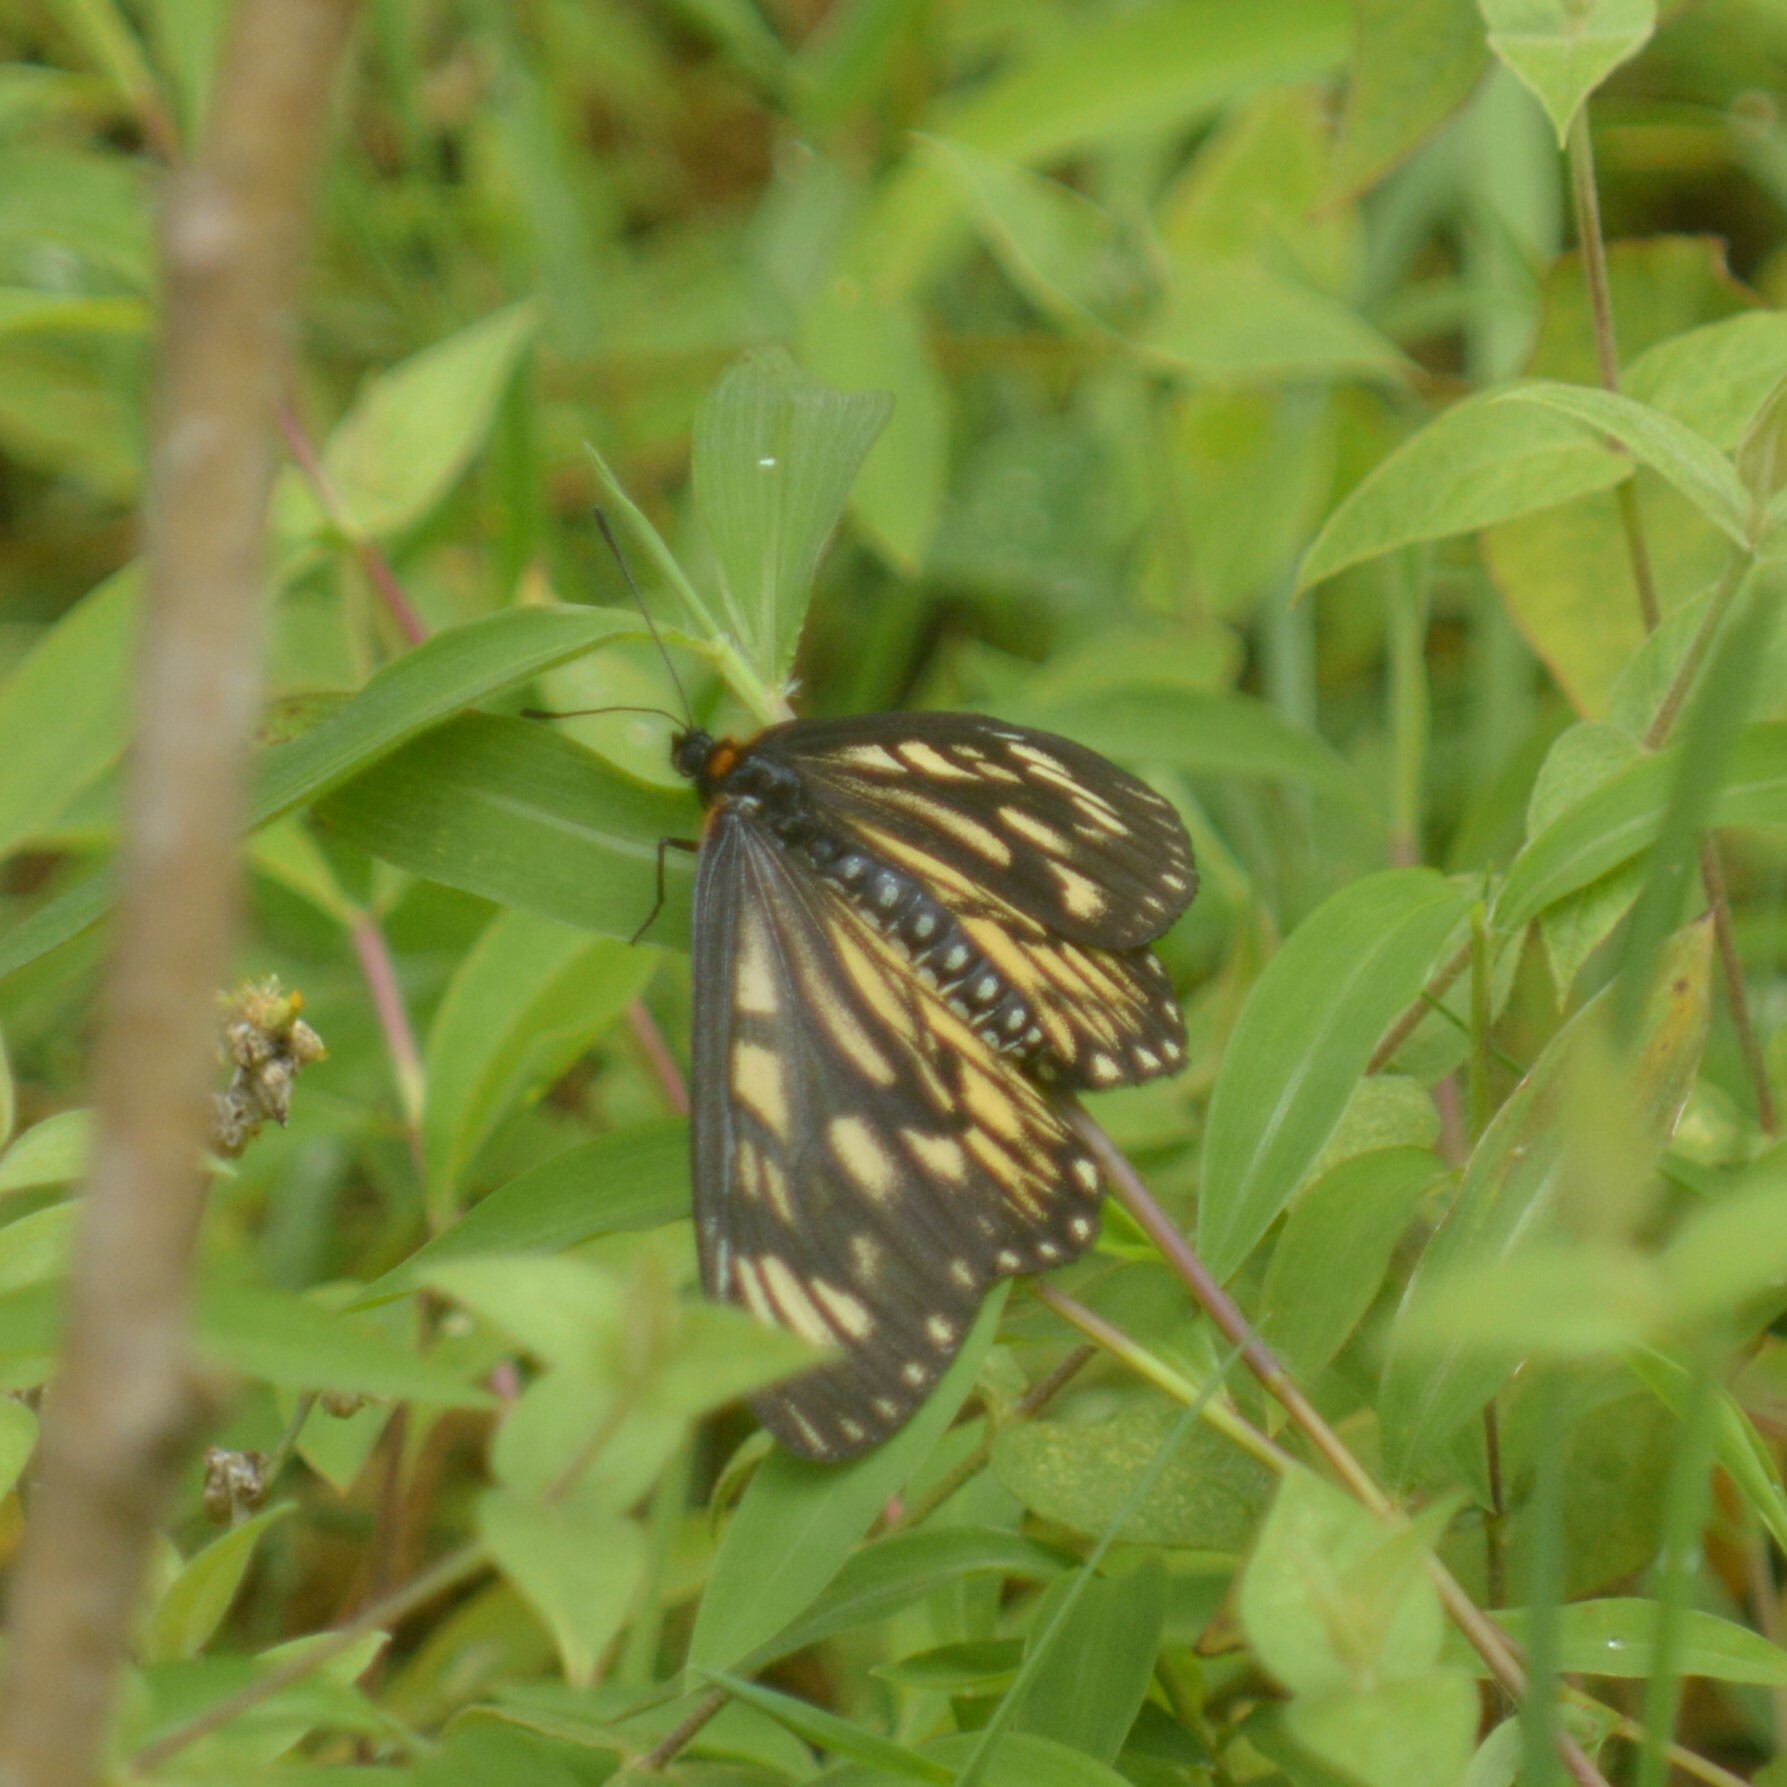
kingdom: Animalia
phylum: Arthropoda
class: Insecta
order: Lepidoptera
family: Nymphalidae
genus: Acraea
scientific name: Acraea Telchinia issoria
